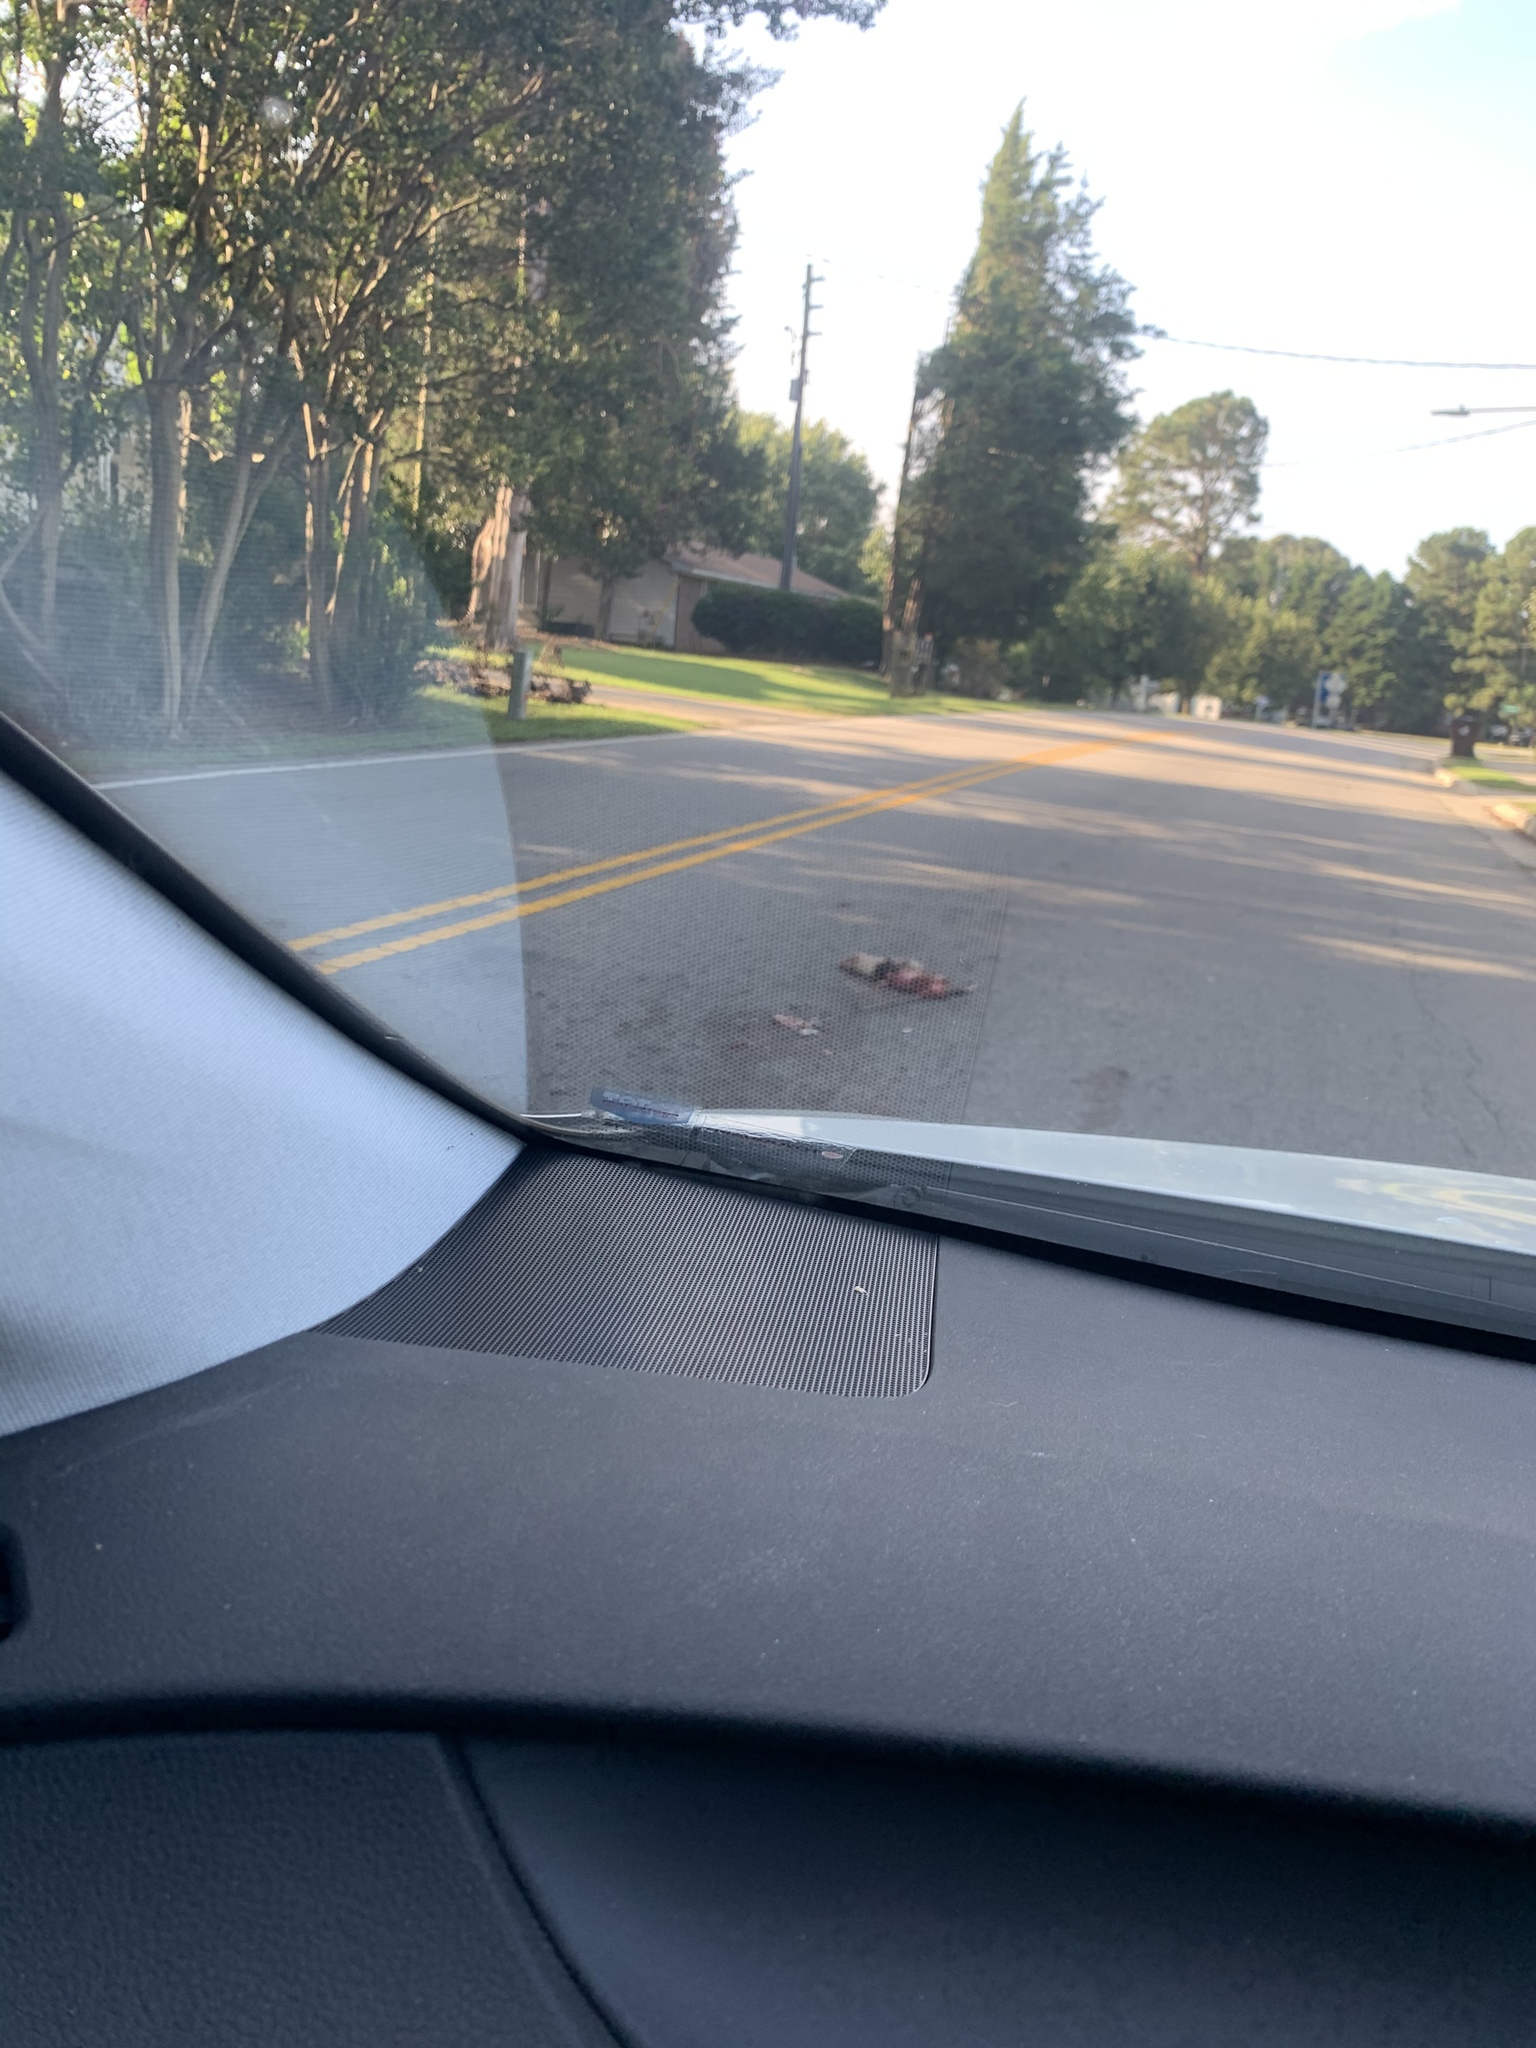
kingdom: Animalia
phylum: Chordata
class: Mammalia
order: Didelphimorphia
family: Didelphidae
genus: Didelphis
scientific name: Didelphis virginiana
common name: Virginia opossum
